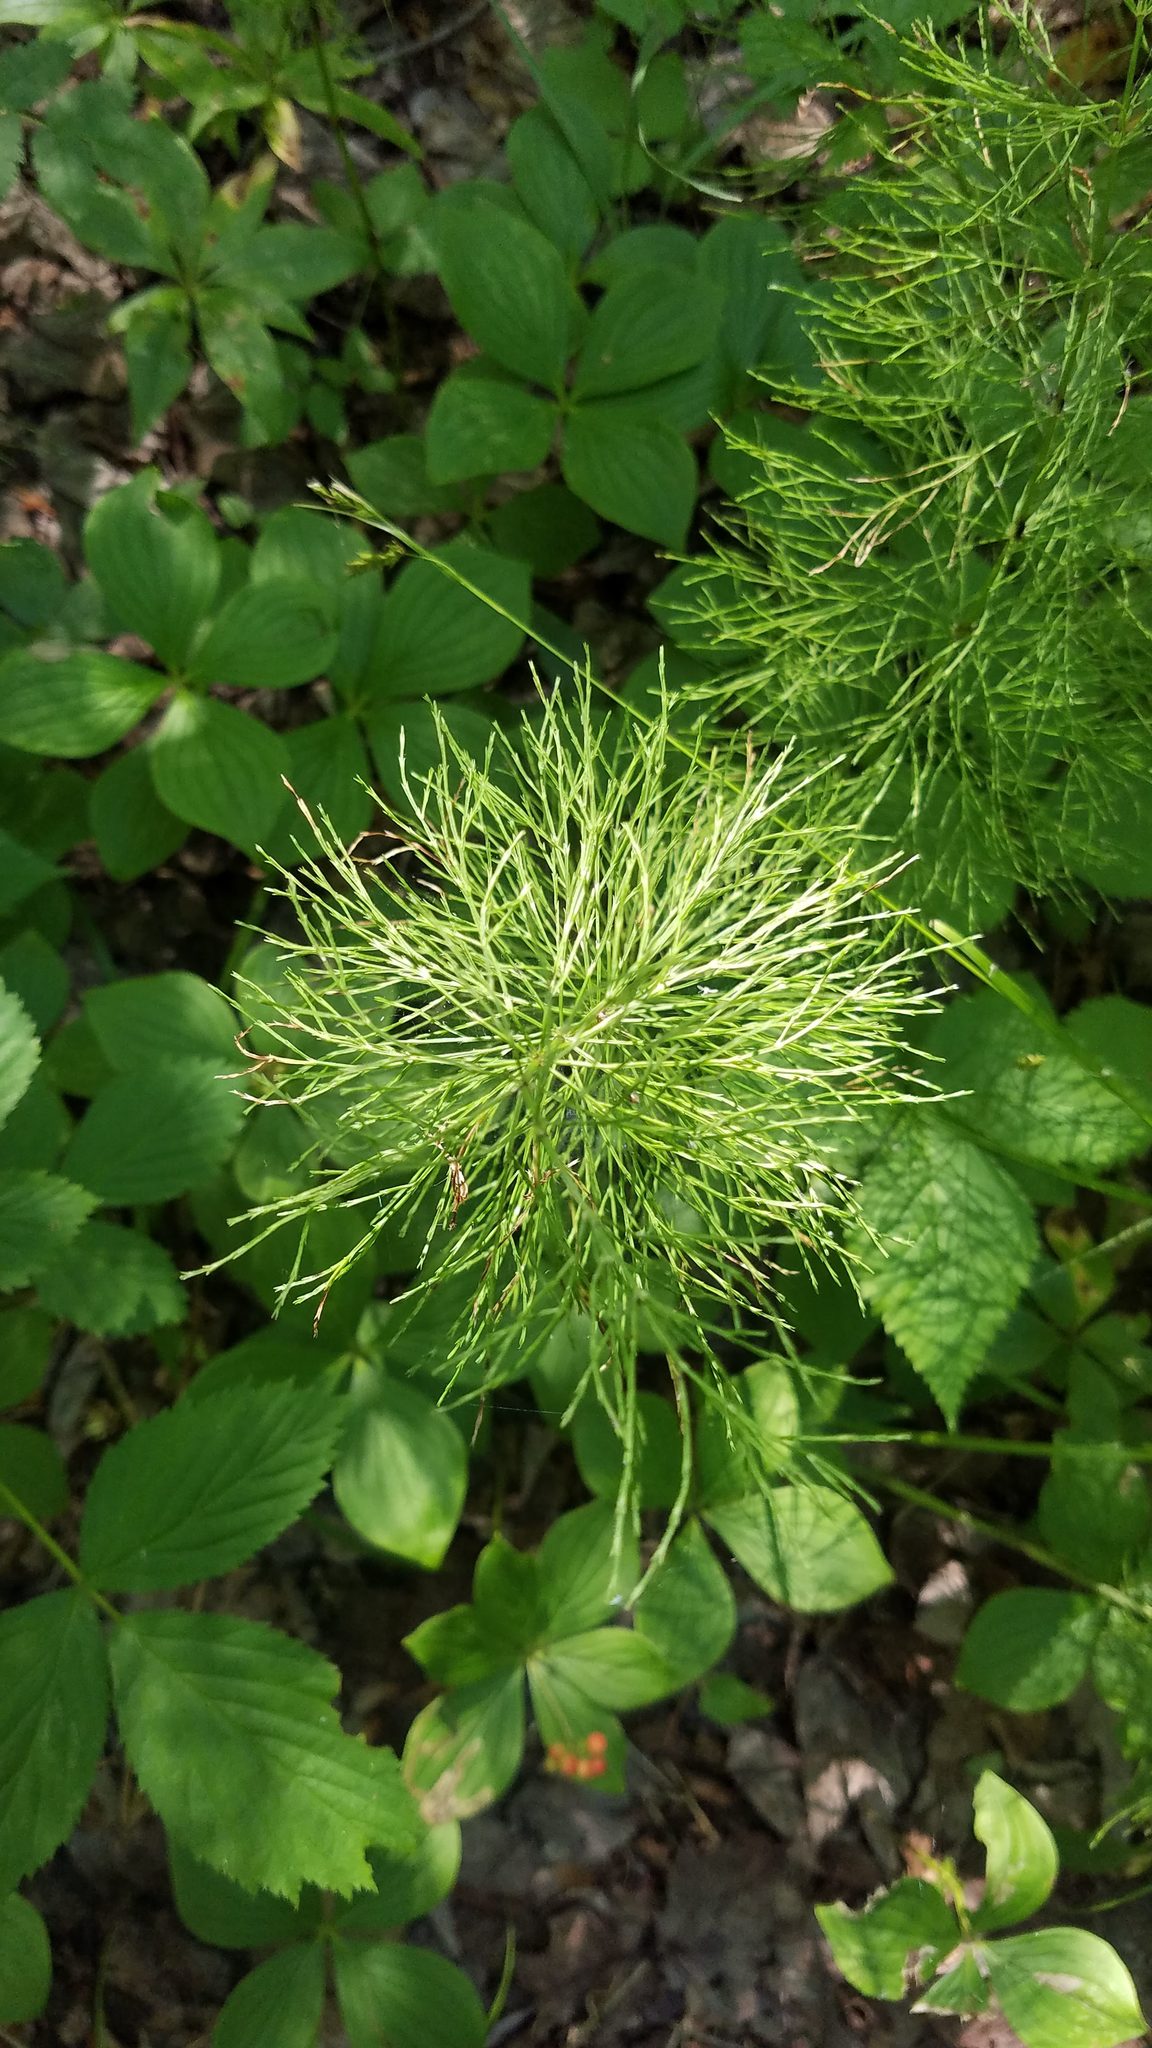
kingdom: Plantae
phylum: Tracheophyta
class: Polypodiopsida
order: Equisetales
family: Equisetaceae
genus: Equisetum
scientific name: Equisetum sylvaticum
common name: Wood horsetail
